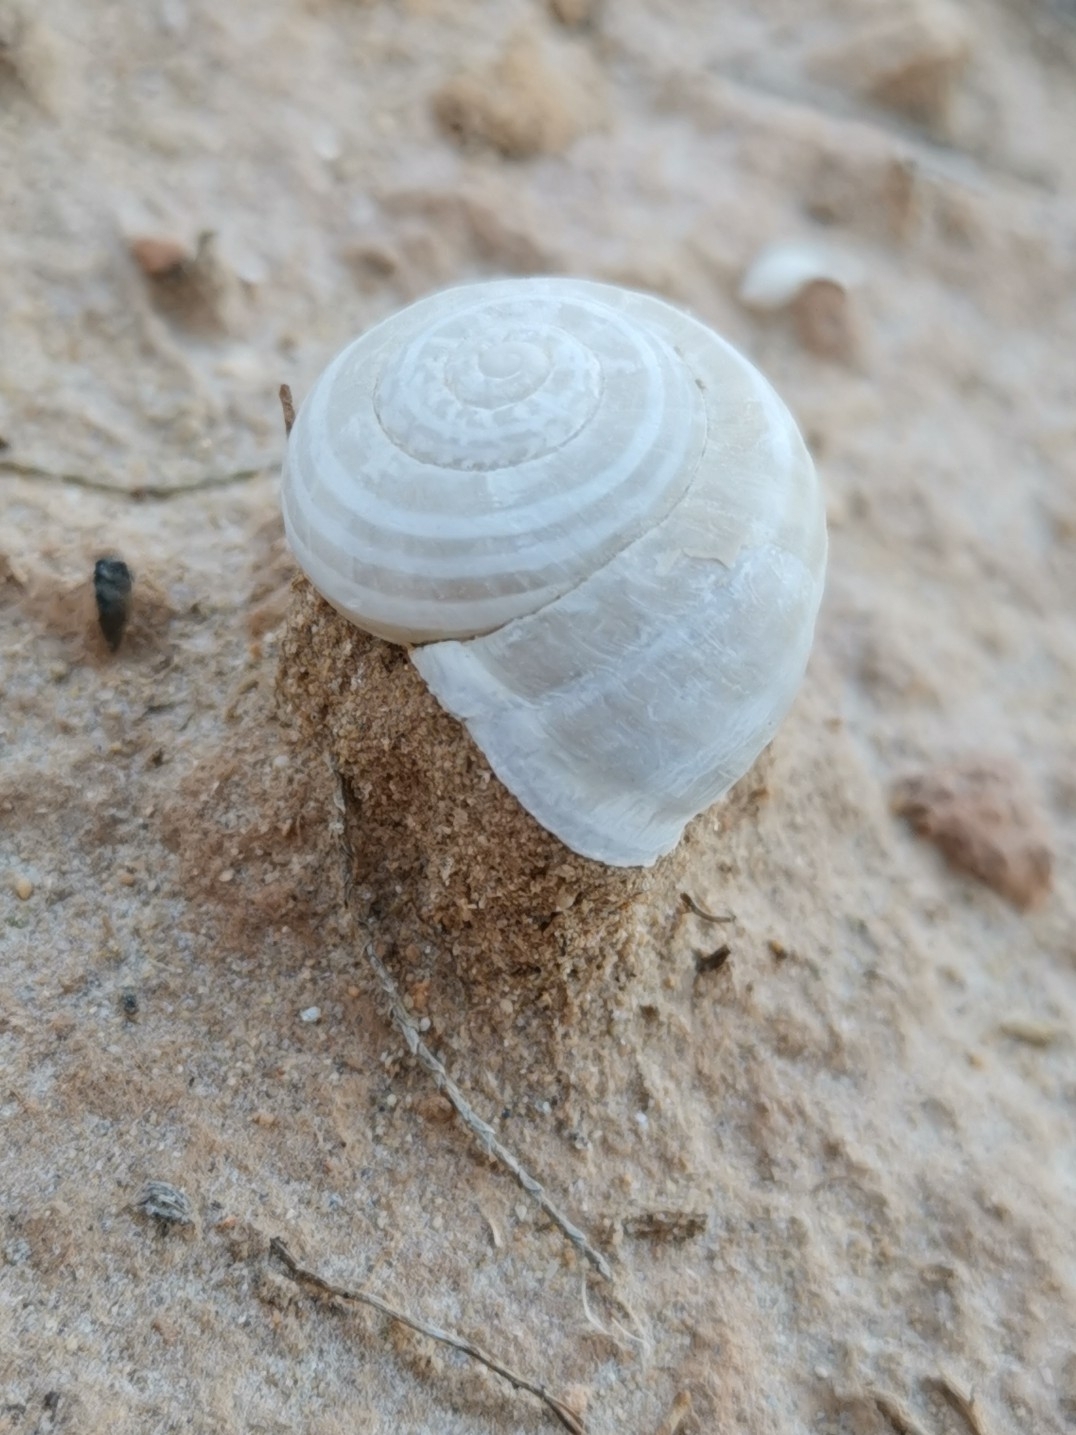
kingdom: Animalia
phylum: Mollusca
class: Gastropoda
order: Stylommatophora
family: Helicidae
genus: Eobania
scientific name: Eobania vermiculata
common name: Chocolateband snail
